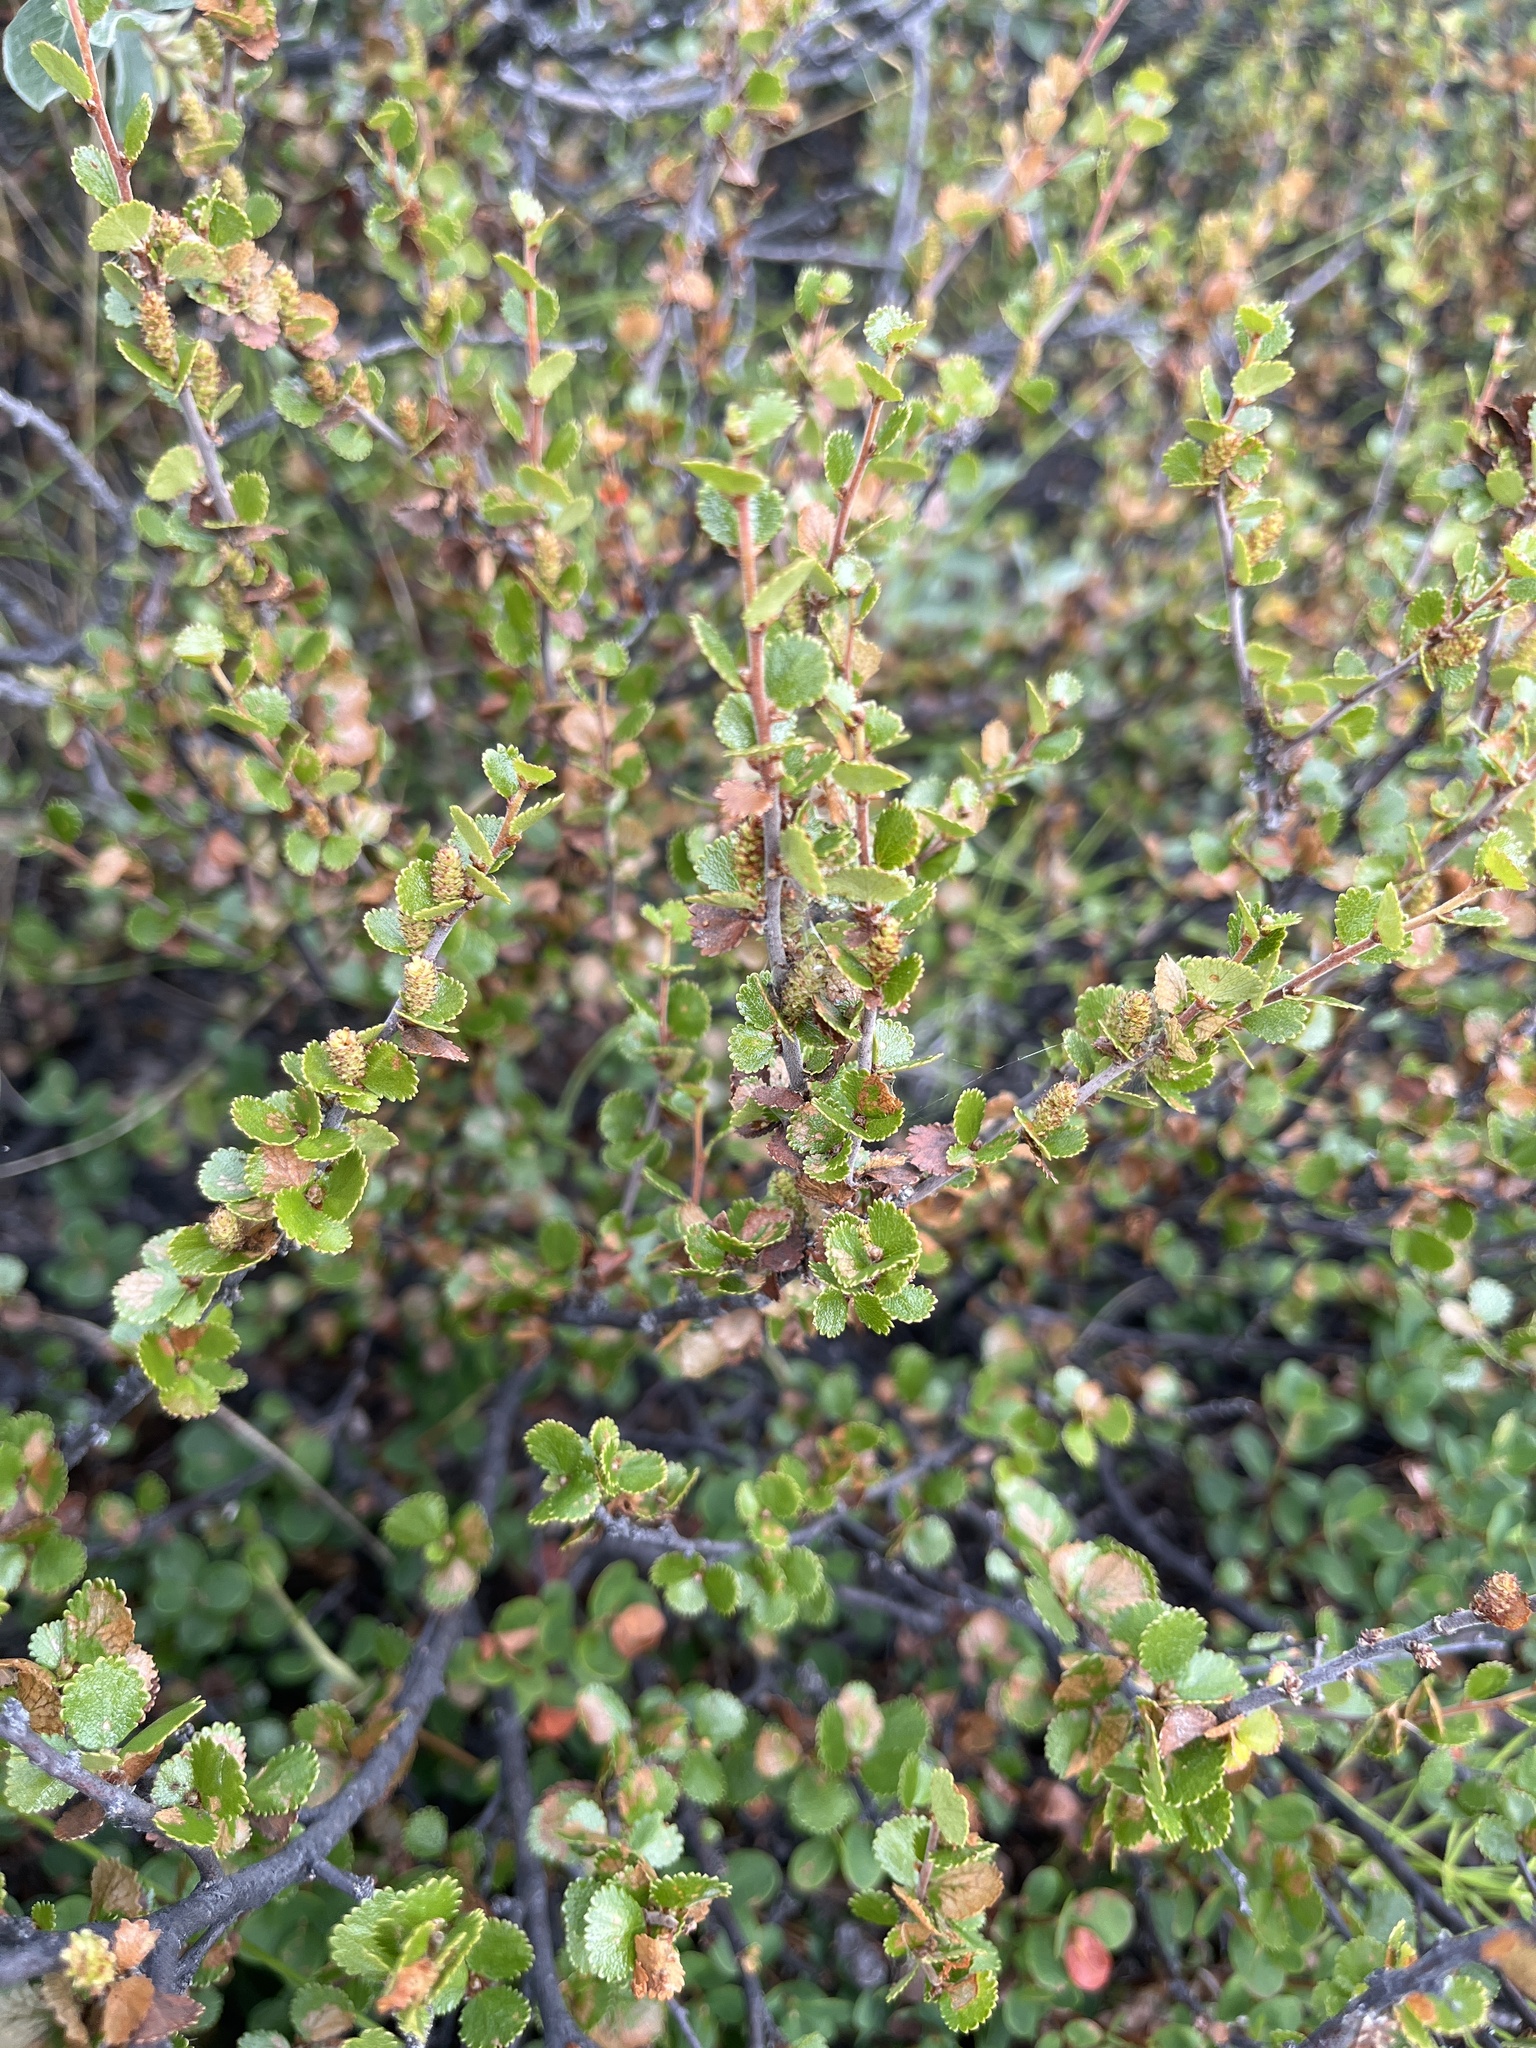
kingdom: Plantae
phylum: Tracheophyta
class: Magnoliopsida
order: Fagales
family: Betulaceae
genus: Betula
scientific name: Betula nana
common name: Arctic dwarf birch
